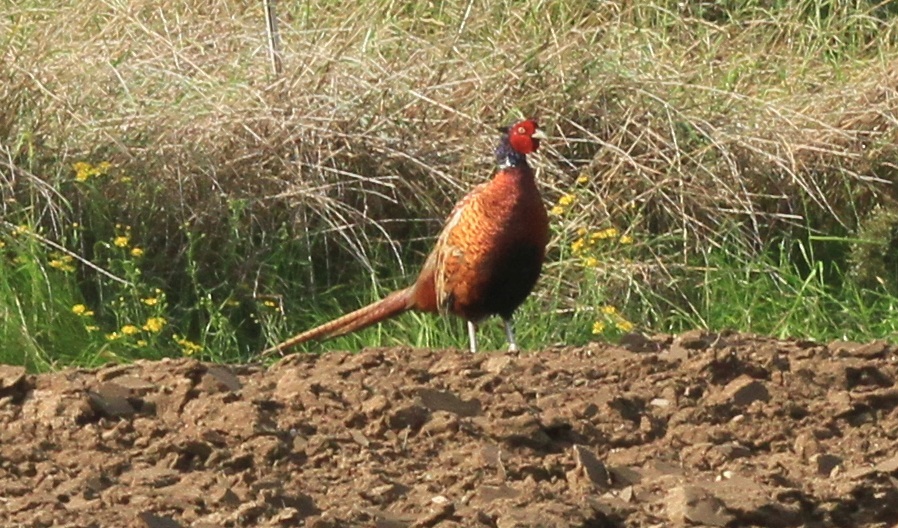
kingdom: Animalia
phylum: Chordata
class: Aves
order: Galliformes
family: Phasianidae
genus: Phasianus
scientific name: Phasianus colchicus
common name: Common pheasant
